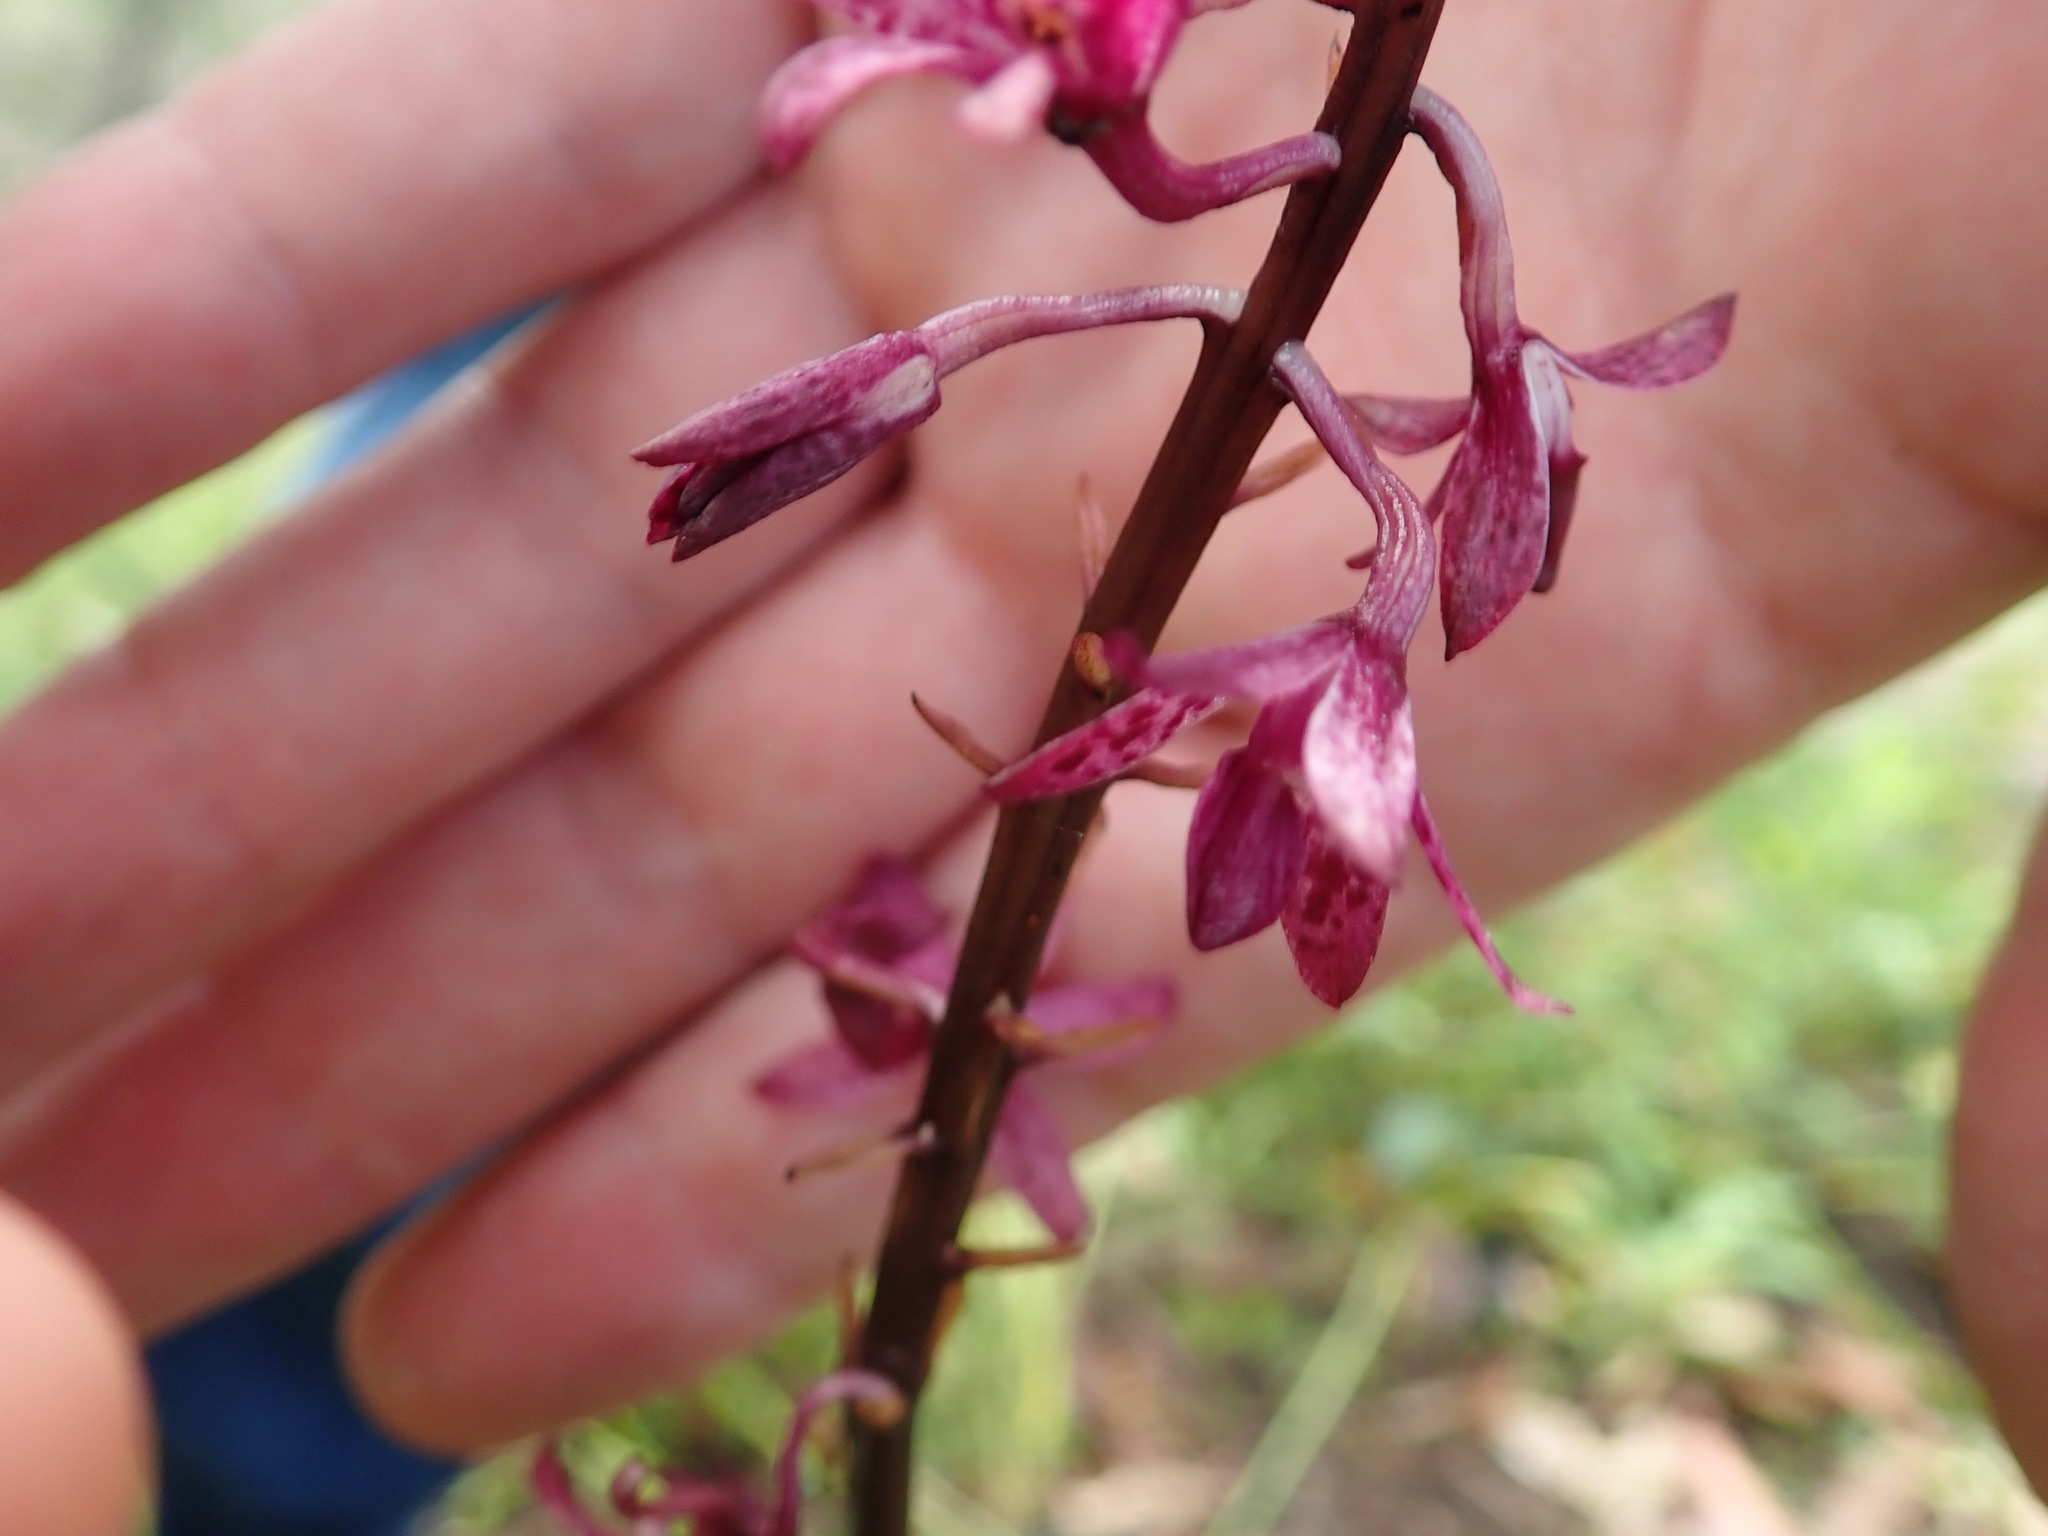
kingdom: Plantae
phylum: Tracheophyta
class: Liliopsida
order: Asparagales
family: Orchidaceae
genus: Dipodium
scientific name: Dipodium squamatum
